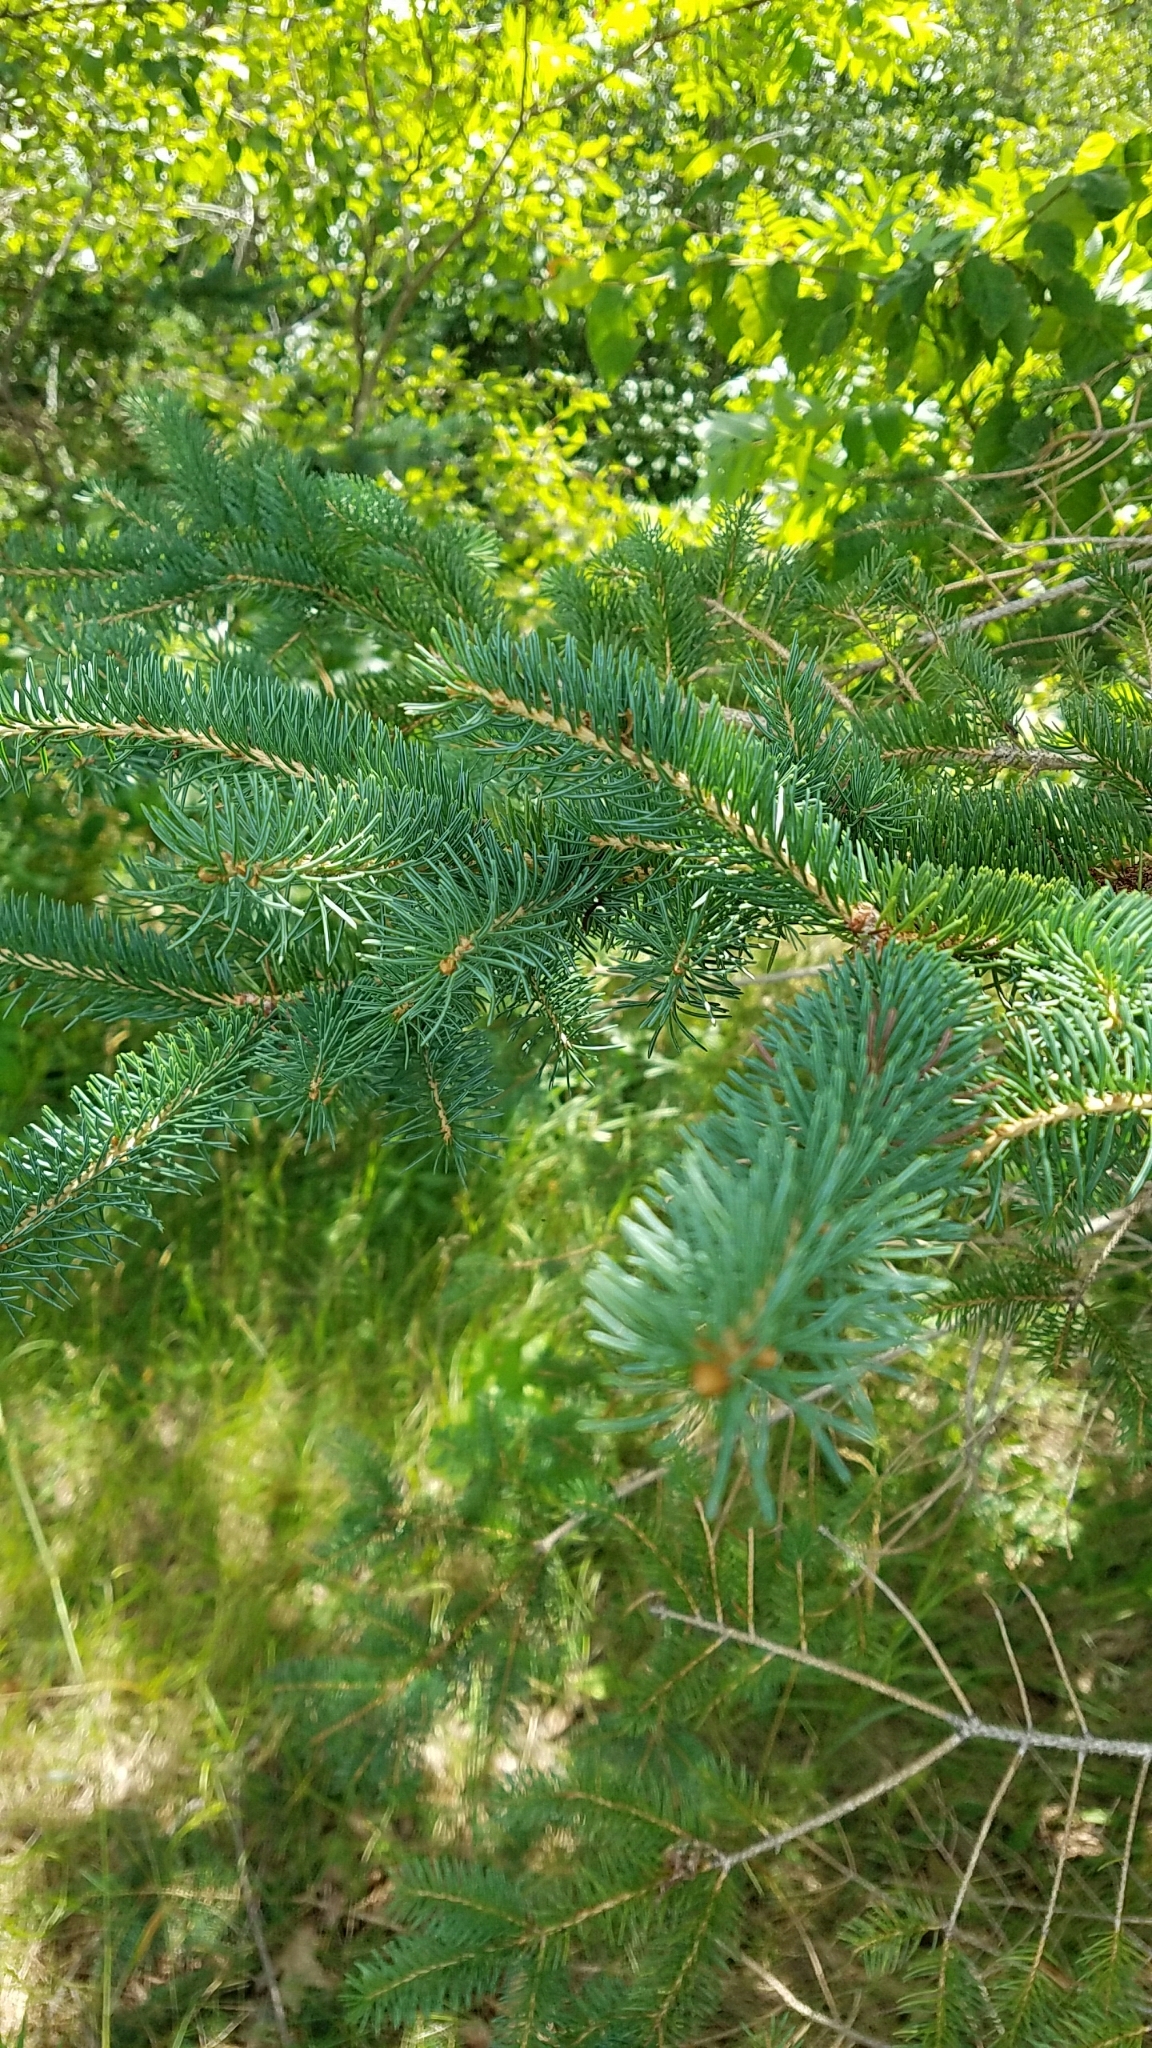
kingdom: Plantae
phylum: Tracheophyta
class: Pinopsida
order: Pinales
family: Pinaceae
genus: Picea
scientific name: Picea glauca
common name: White spruce
